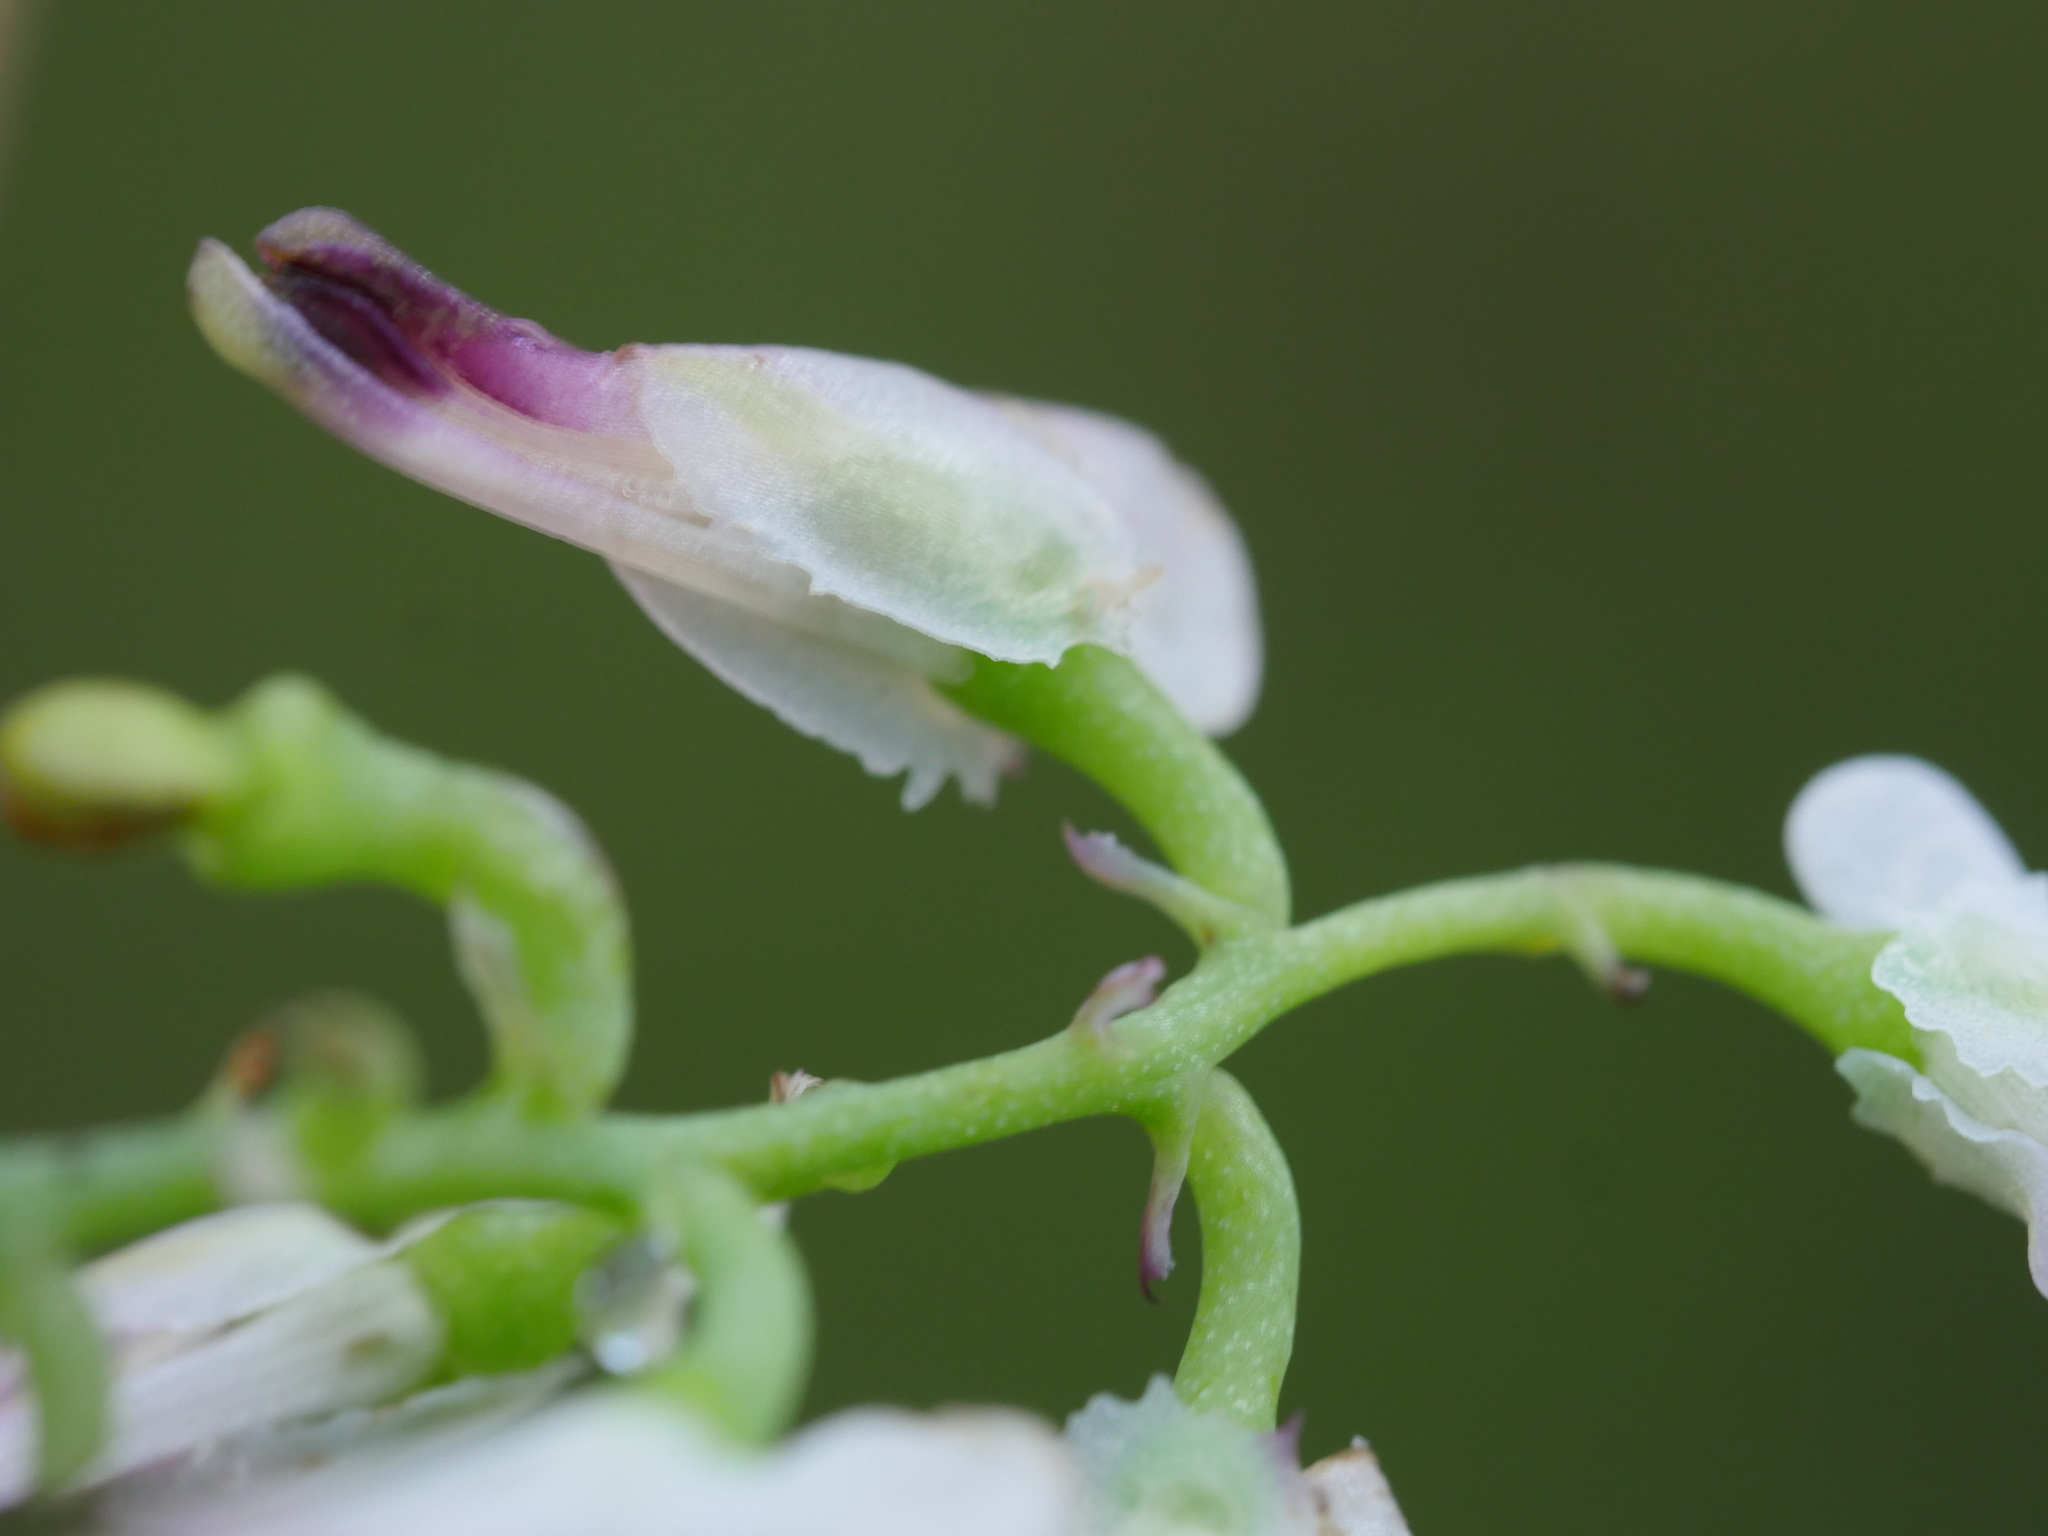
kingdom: Plantae
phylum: Tracheophyta
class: Magnoliopsida
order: Ranunculales
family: Papaveraceae
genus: Fumaria
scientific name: Fumaria capreolata
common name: White ramping-fumitory
